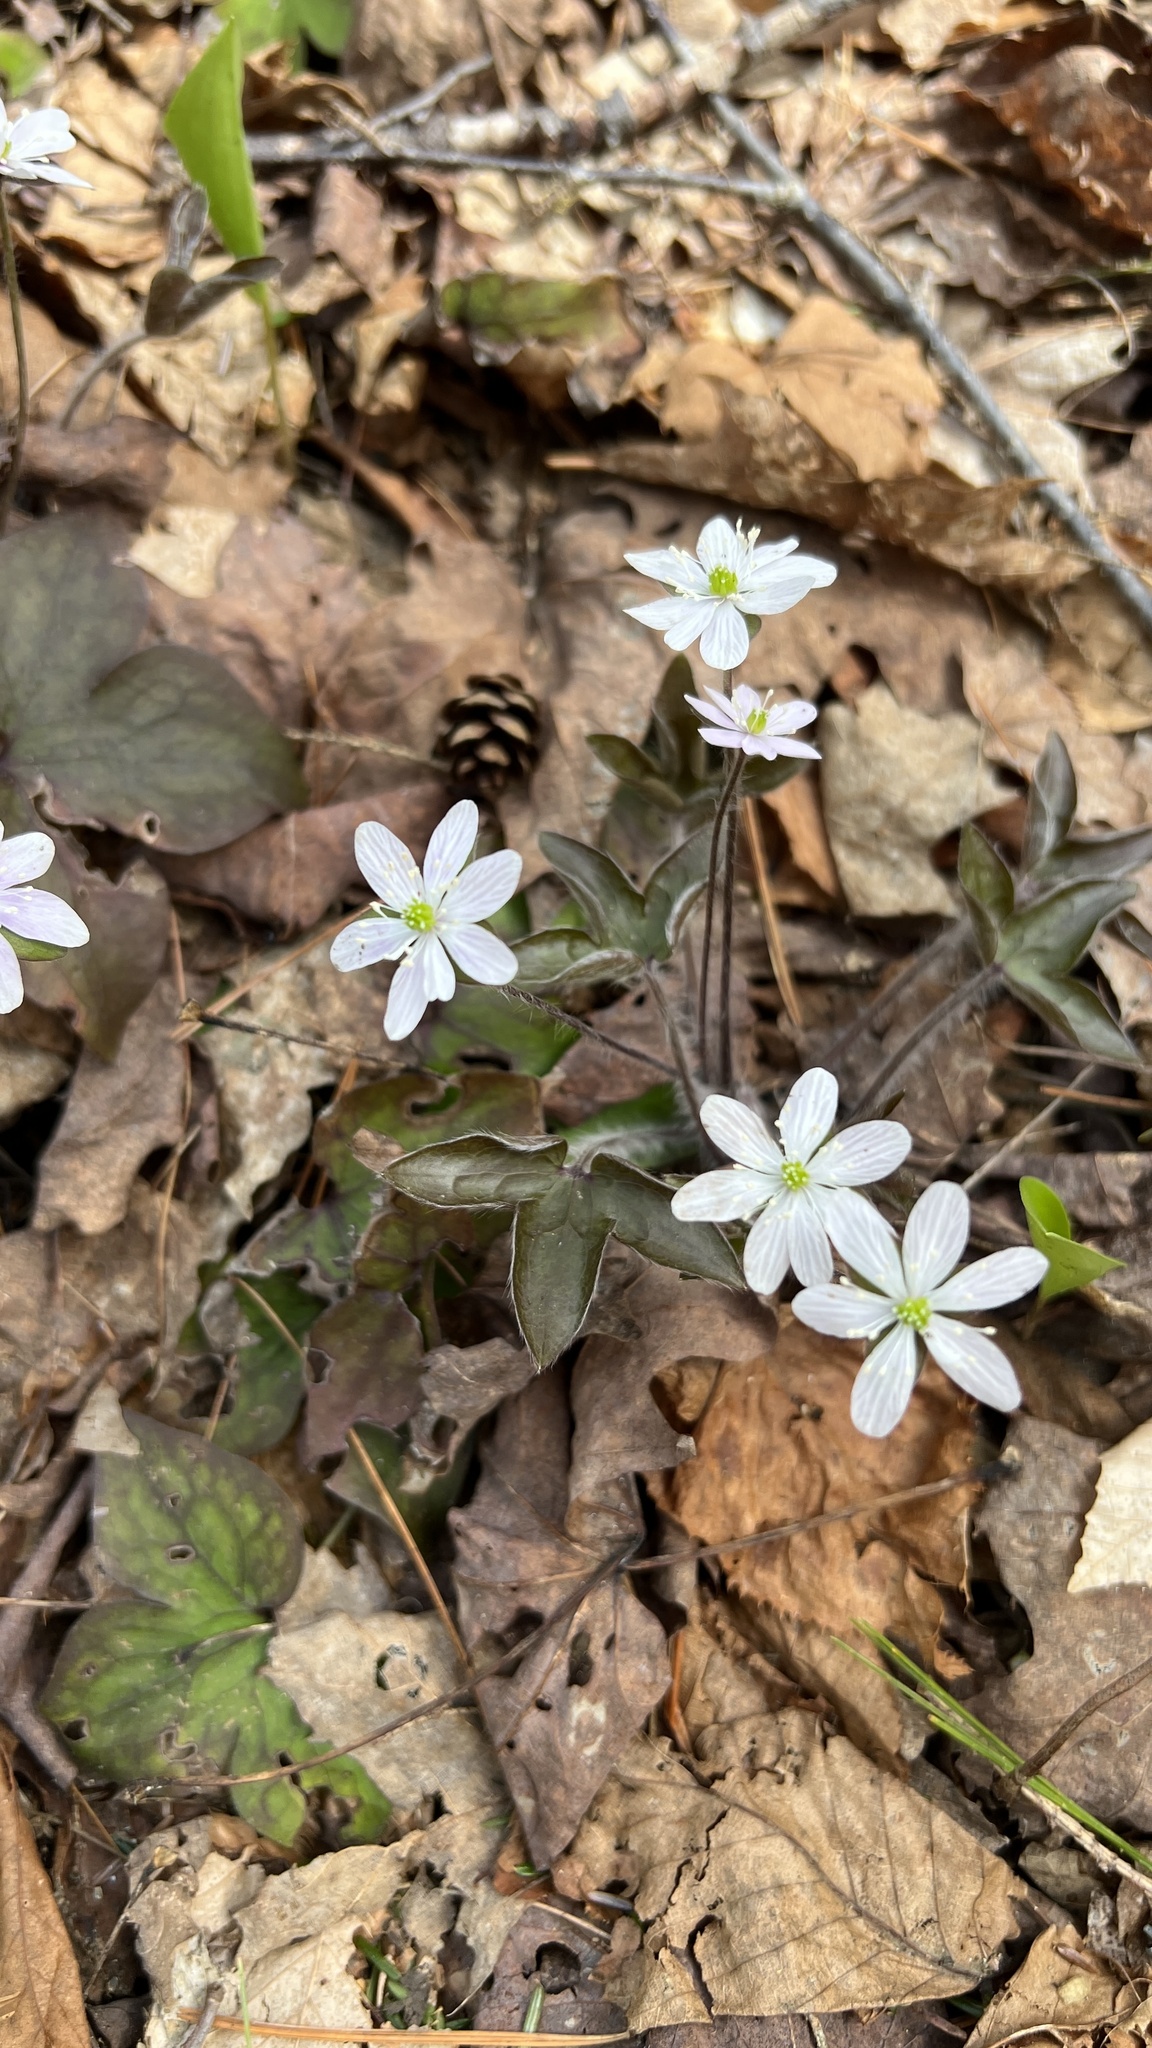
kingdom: Plantae
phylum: Tracheophyta
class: Magnoliopsida
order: Ranunculales
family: Ranunculaceae
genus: Hepatica
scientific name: Hepatica acutiloba
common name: Sharp-lobed hepatica
